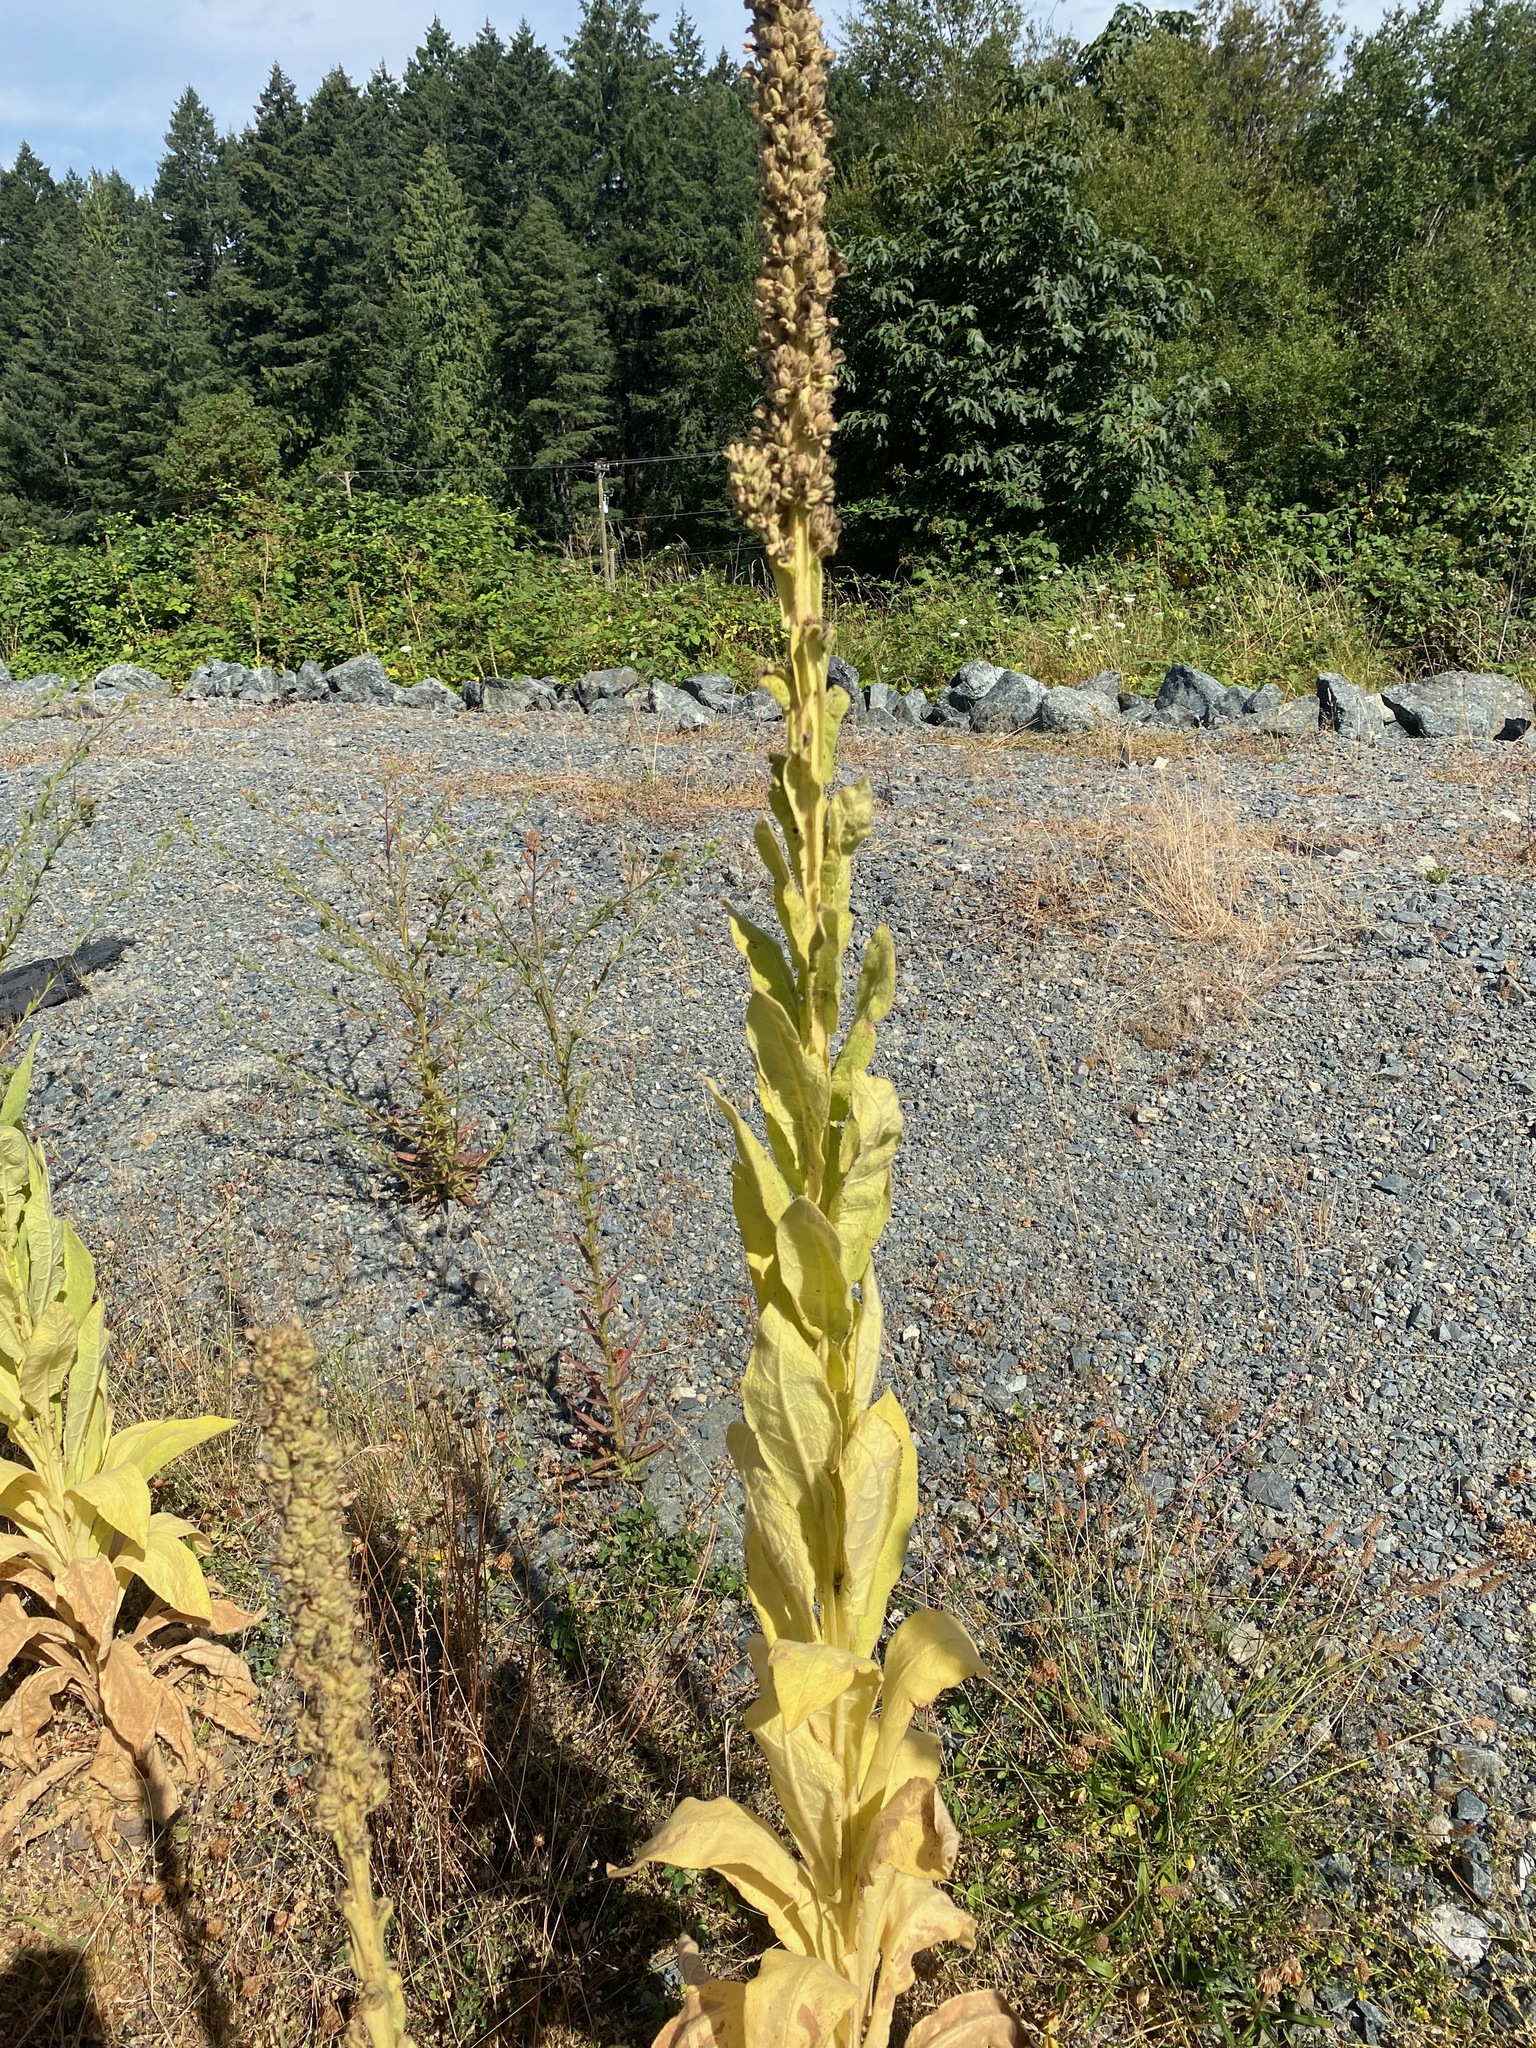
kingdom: Plantae
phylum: Tracheophyta
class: Magnoliopsida
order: Lamiales
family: Scrophulariaceae
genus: Verbascum
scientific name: Verbascum thapsus
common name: Common mullein
